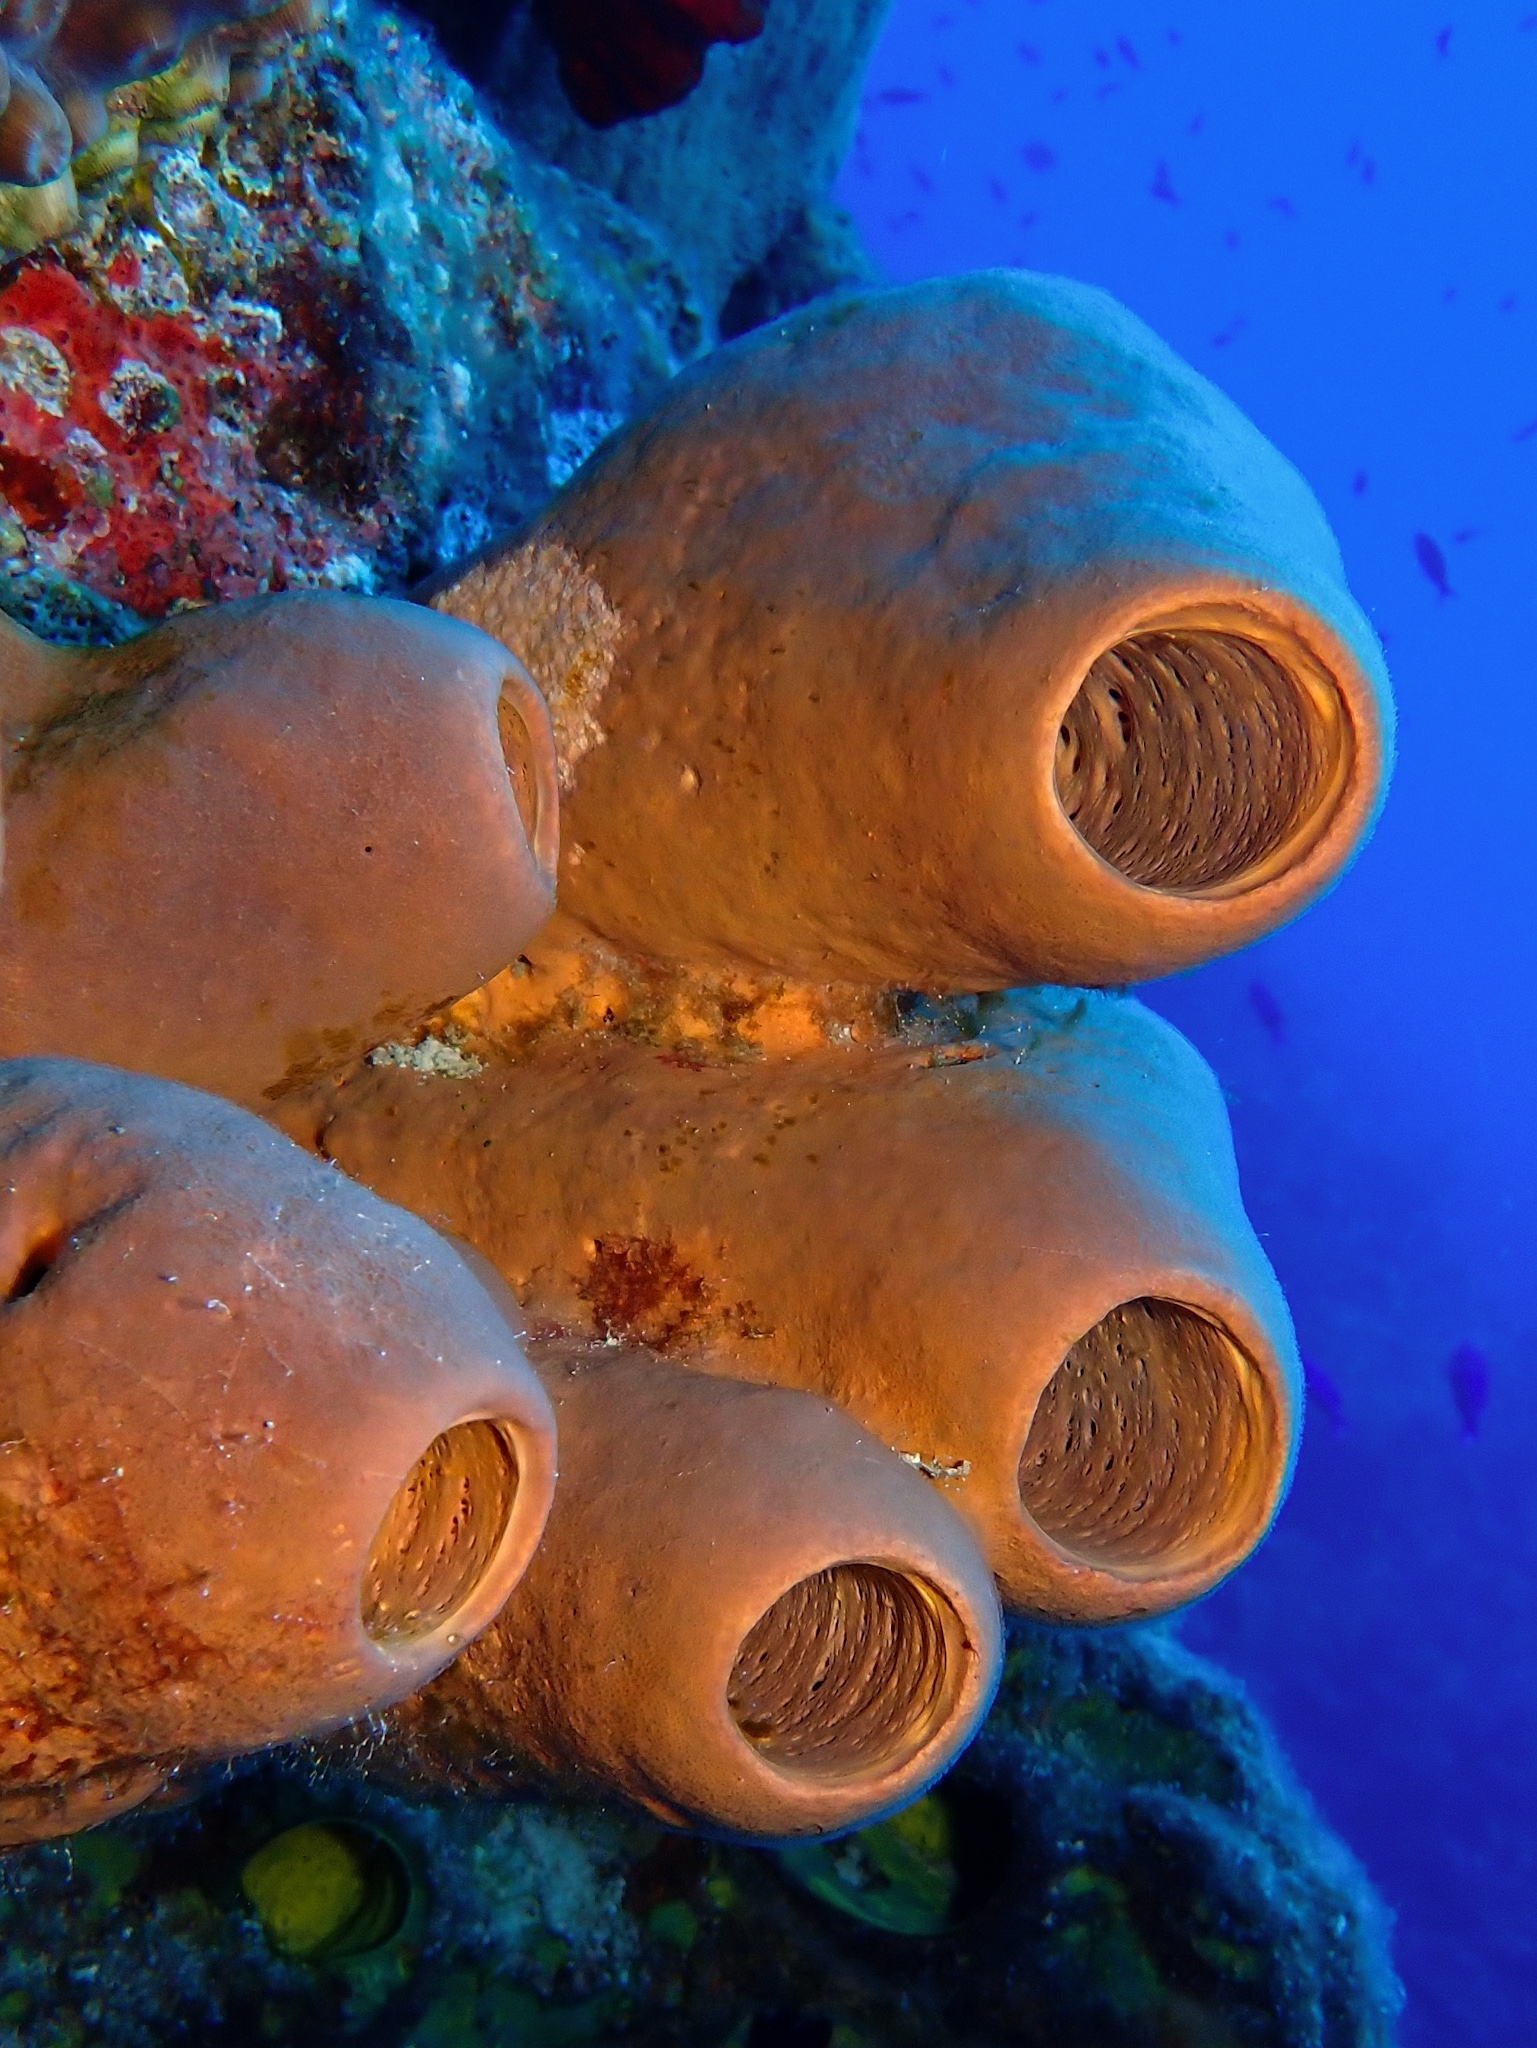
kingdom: Animalia
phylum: Porifera
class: Demospongiae
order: Agelasida
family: Agelasidae
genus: Agelas
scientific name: Agelas tubulata
